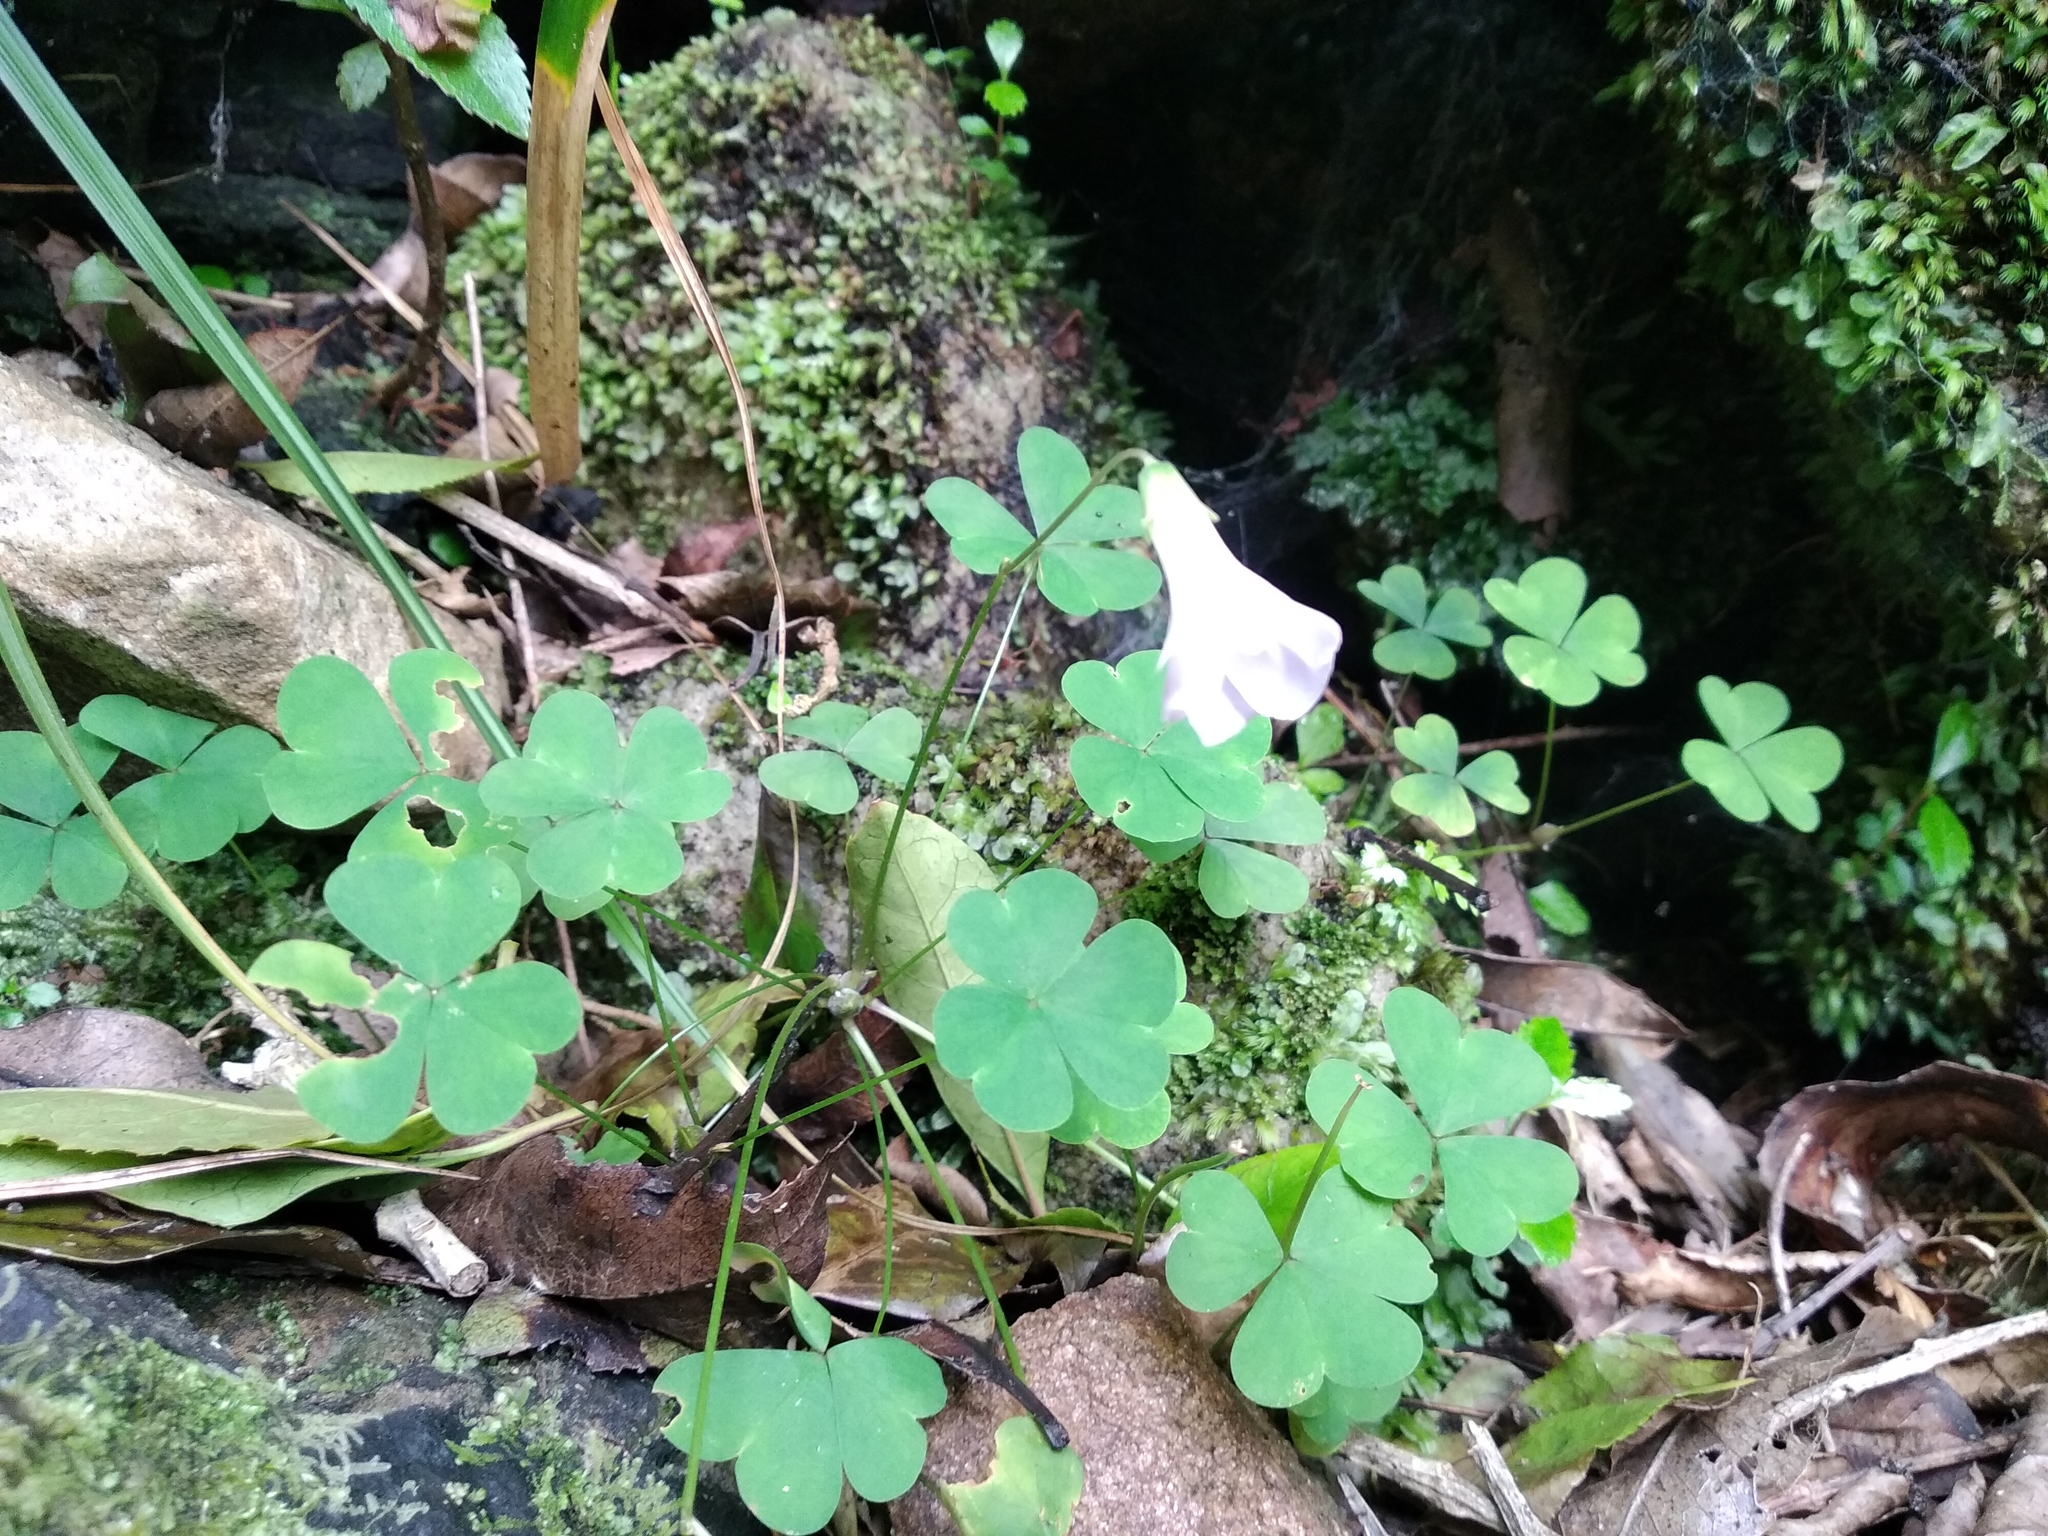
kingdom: Plantae
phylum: Tracheophyta
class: Magnoliopsida
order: Oxalidales
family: Oxalidaceae
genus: Oxalis
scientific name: Oxalis incarnata
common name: Pale pink-sorrel
